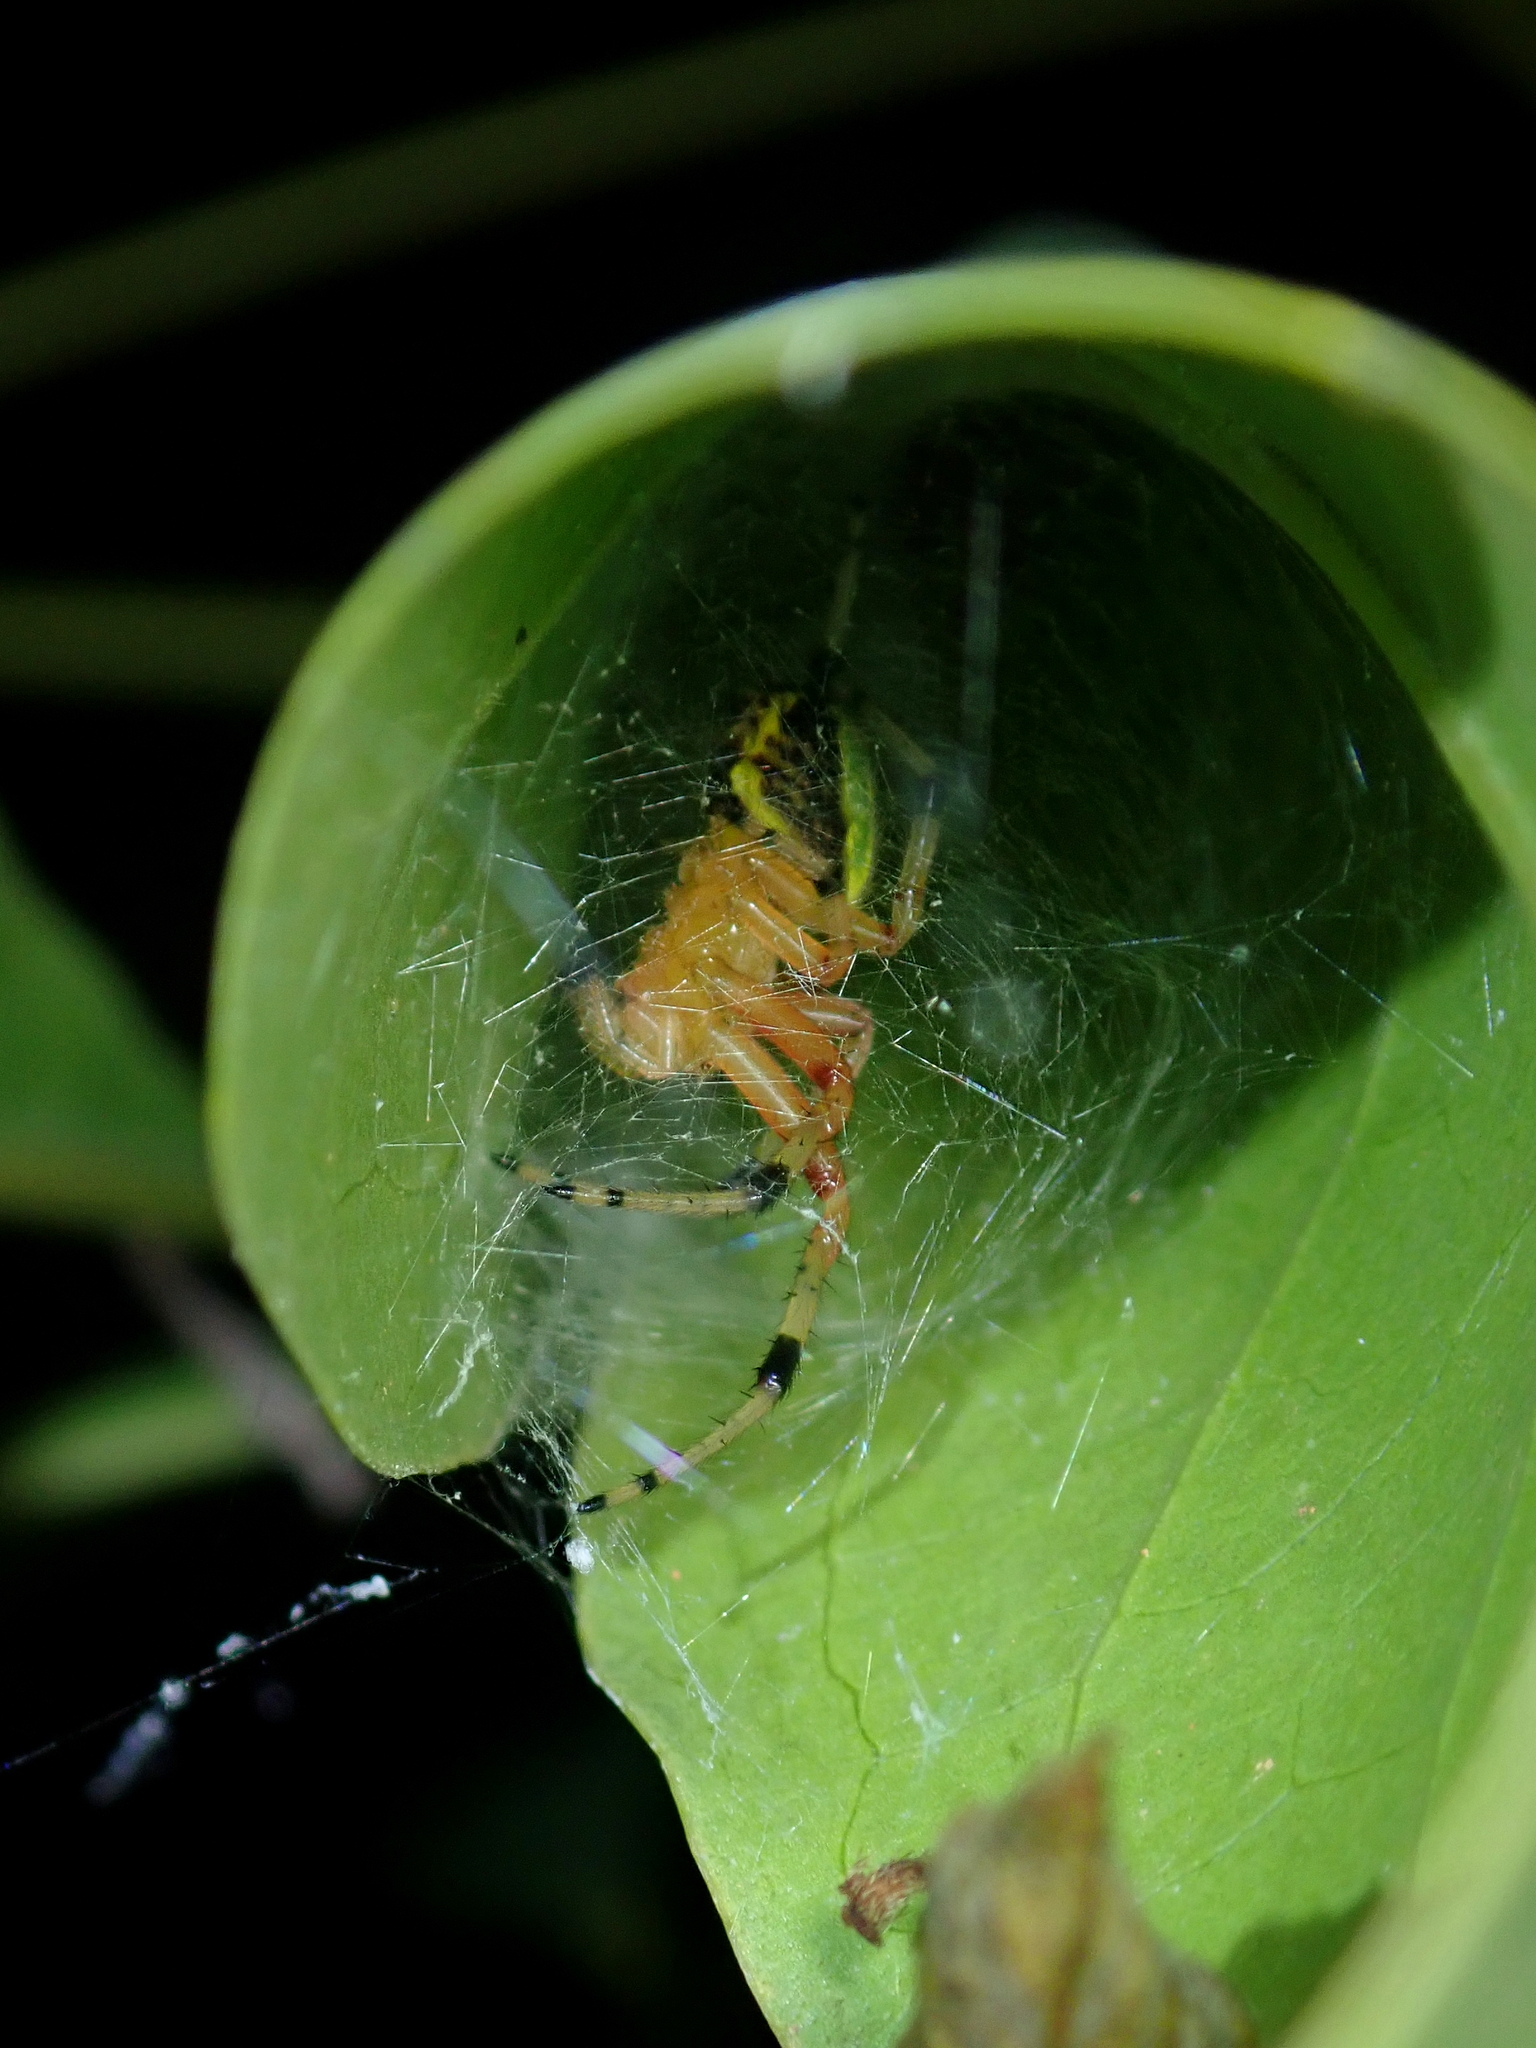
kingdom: Animalia
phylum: Arthropoda
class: Arachnida
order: Araneae
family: Araneidae
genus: Araneus
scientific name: Araneus guttatus
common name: Orb weavers
